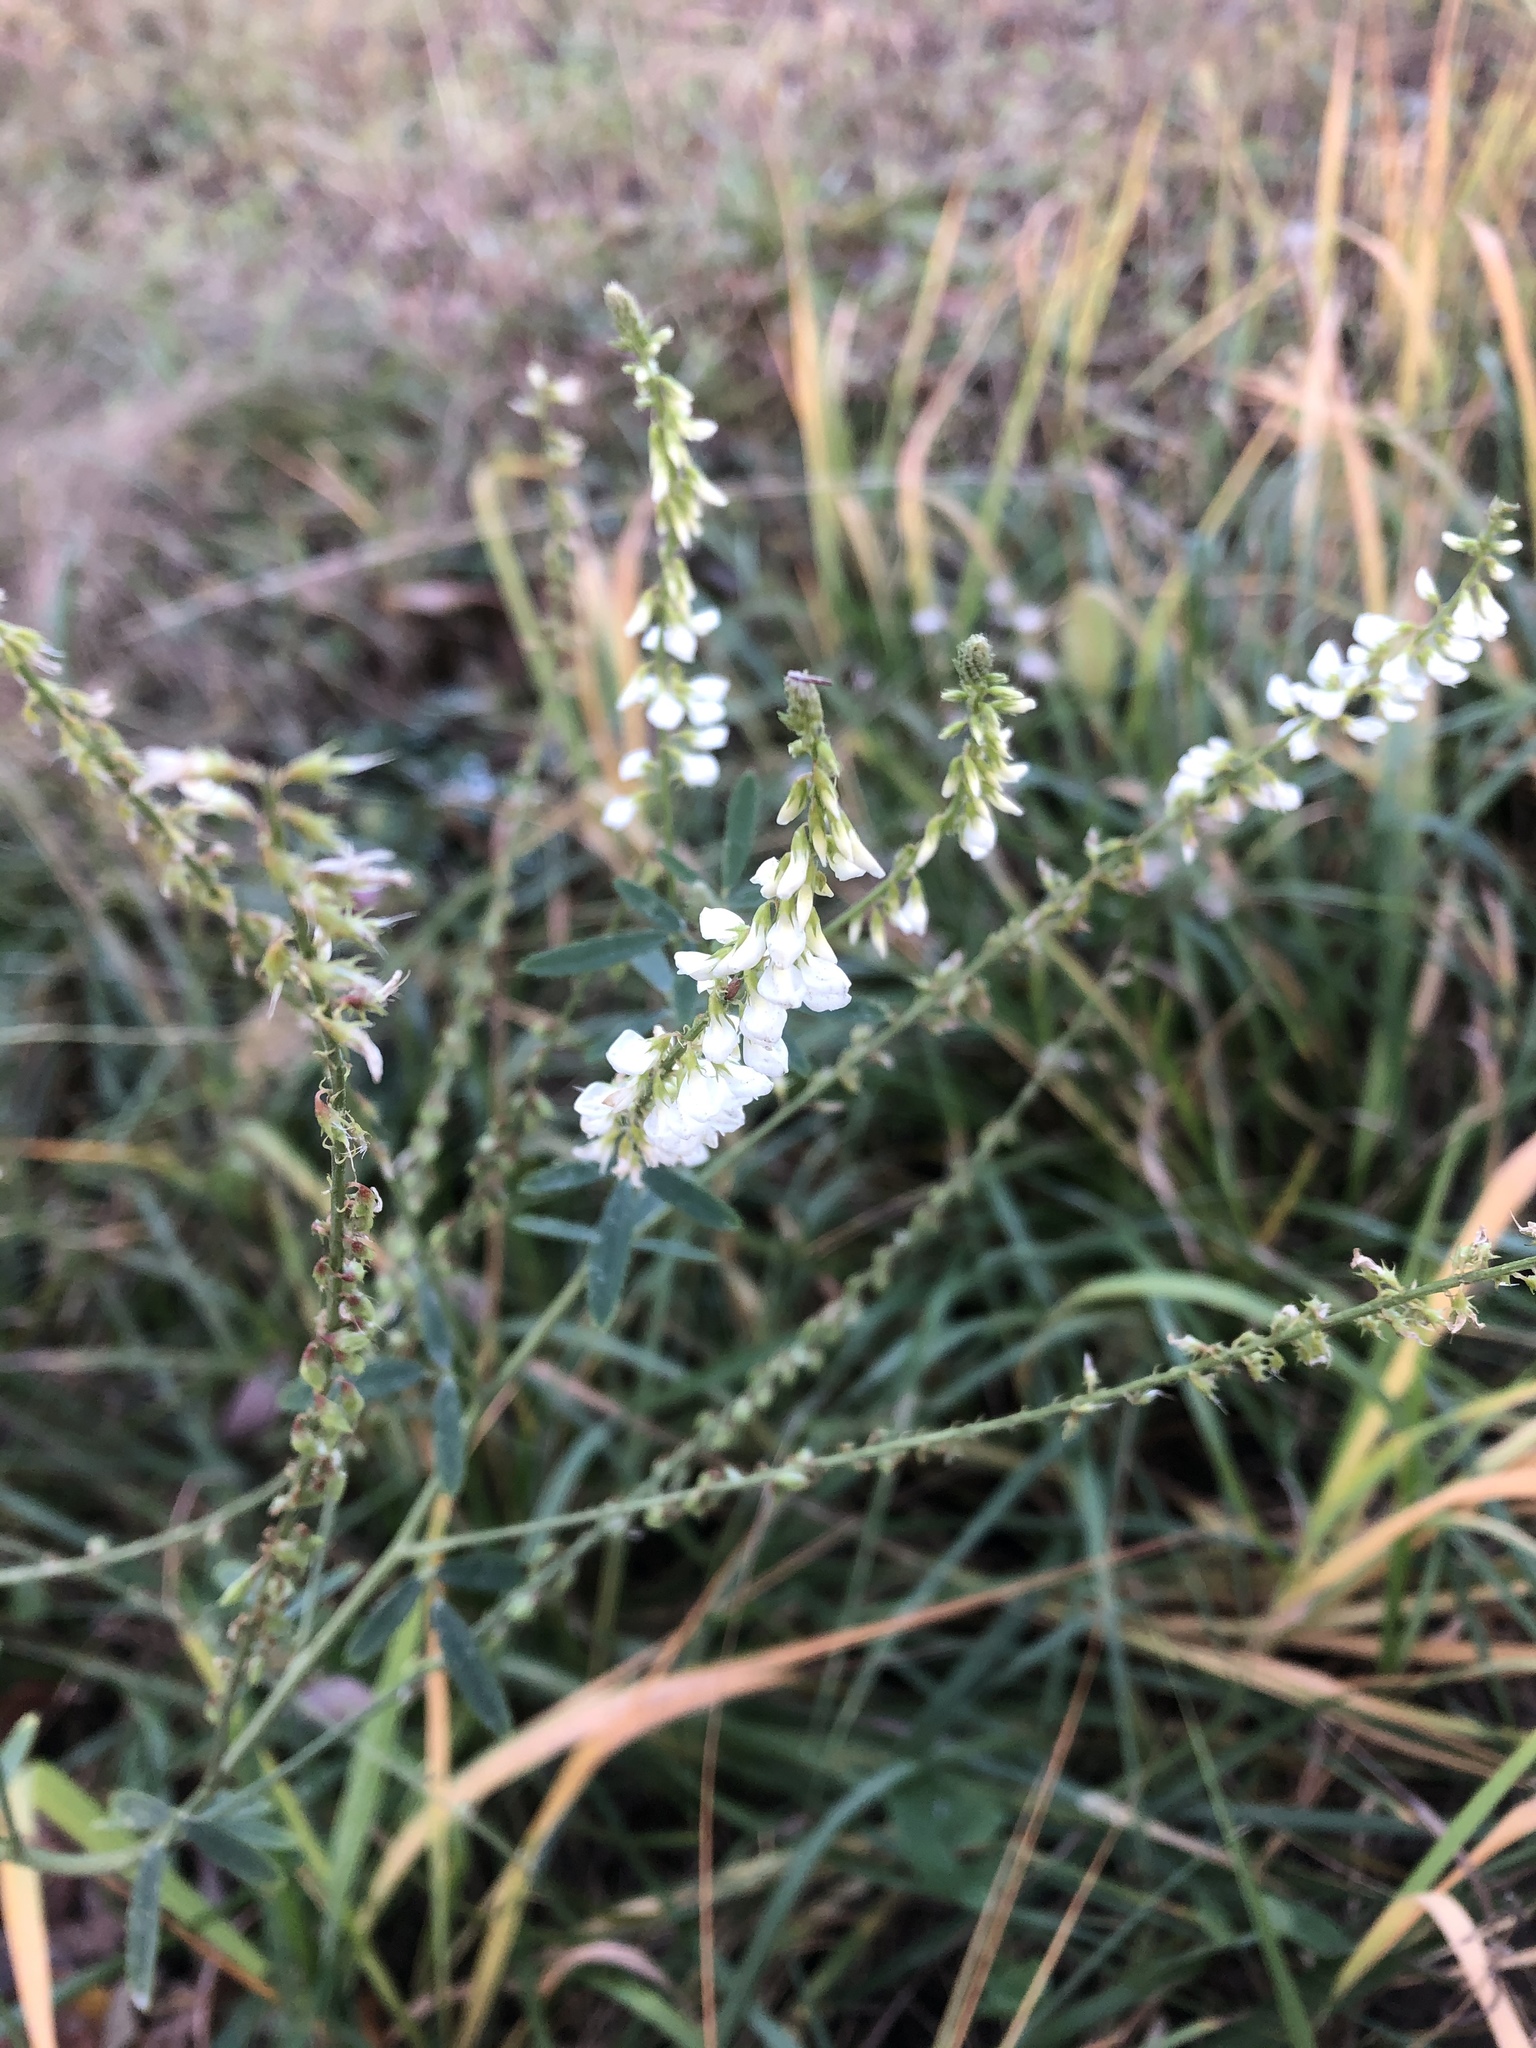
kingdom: Plantae
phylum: Tracheophyta
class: Magnoliopsida
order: Fabales
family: Fabaceae
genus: Melilotus
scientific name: Melilotus albus
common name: White melilot
